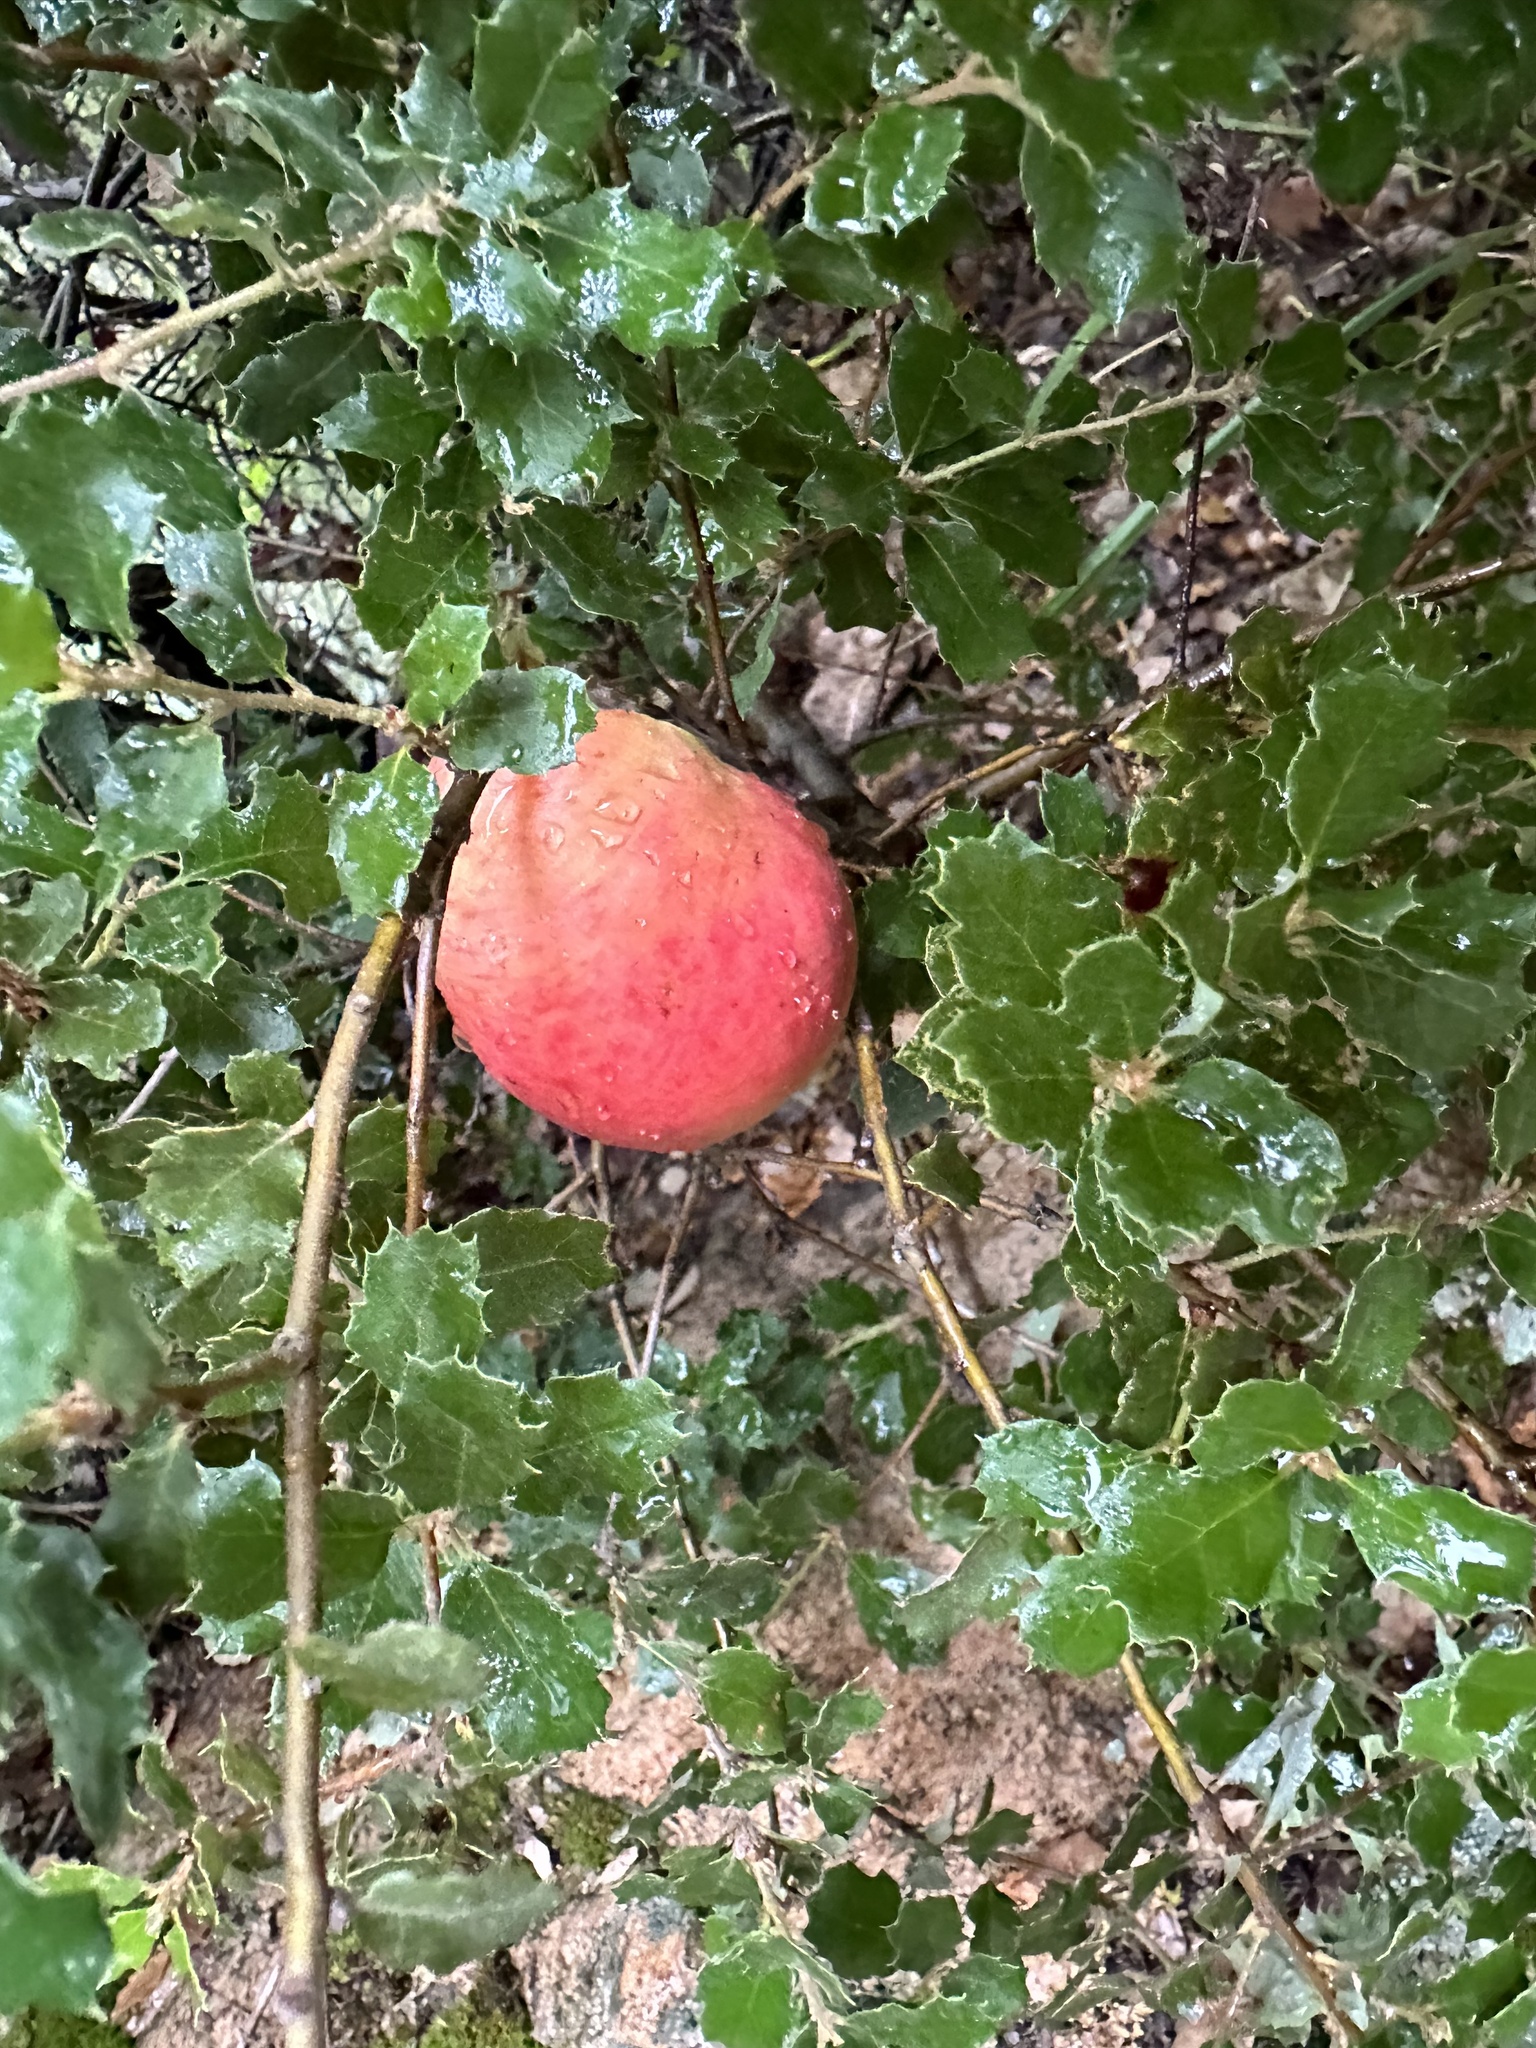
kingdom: Plantae
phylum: Tracheophyta
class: Magnoliopsida
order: Fagales
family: Fagaceae
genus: Quercus
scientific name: Quercus berberidifolia
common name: California scrub oak
